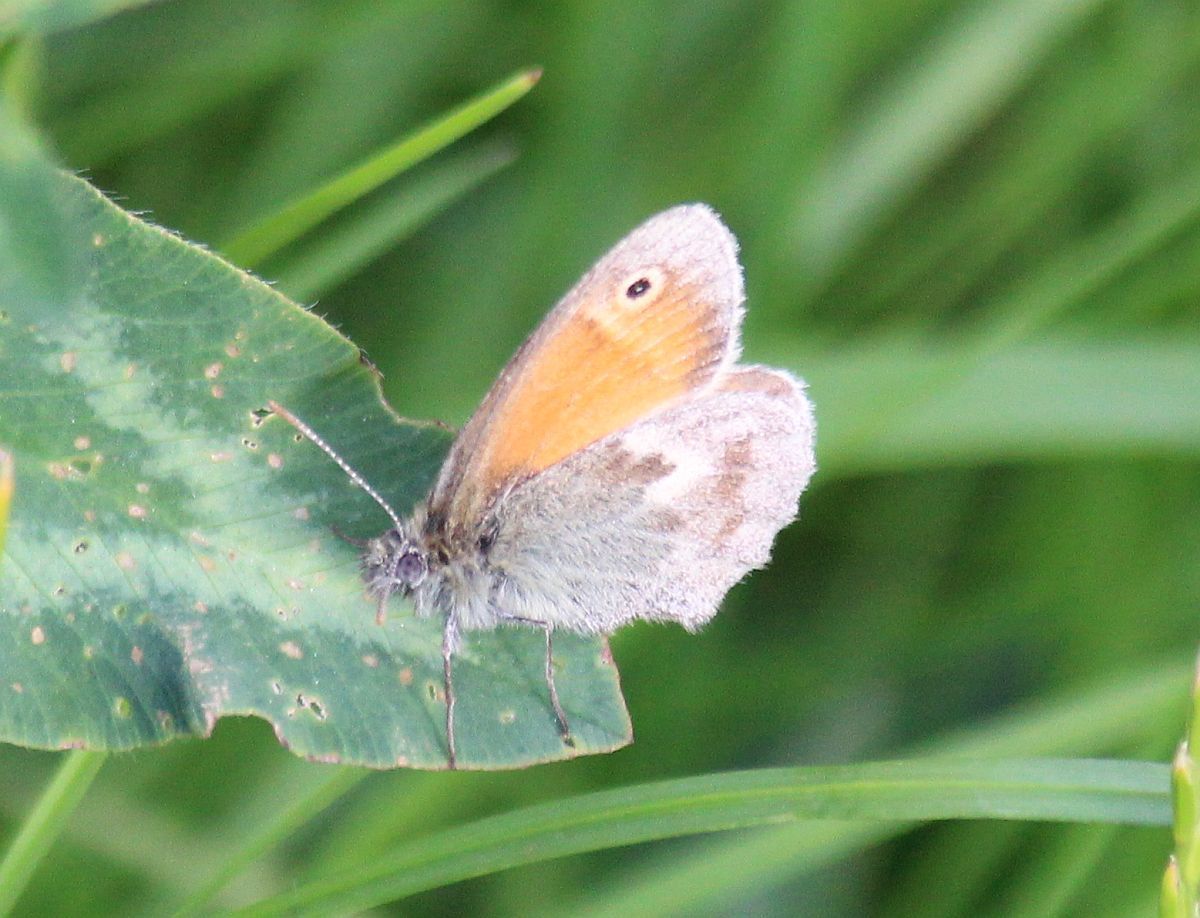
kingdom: Animalia
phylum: Arthropoda
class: Insecta
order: Lepidoptera
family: Nymphalidae
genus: Coenonympha
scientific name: Coenonympha pamphilus
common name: Small heath
